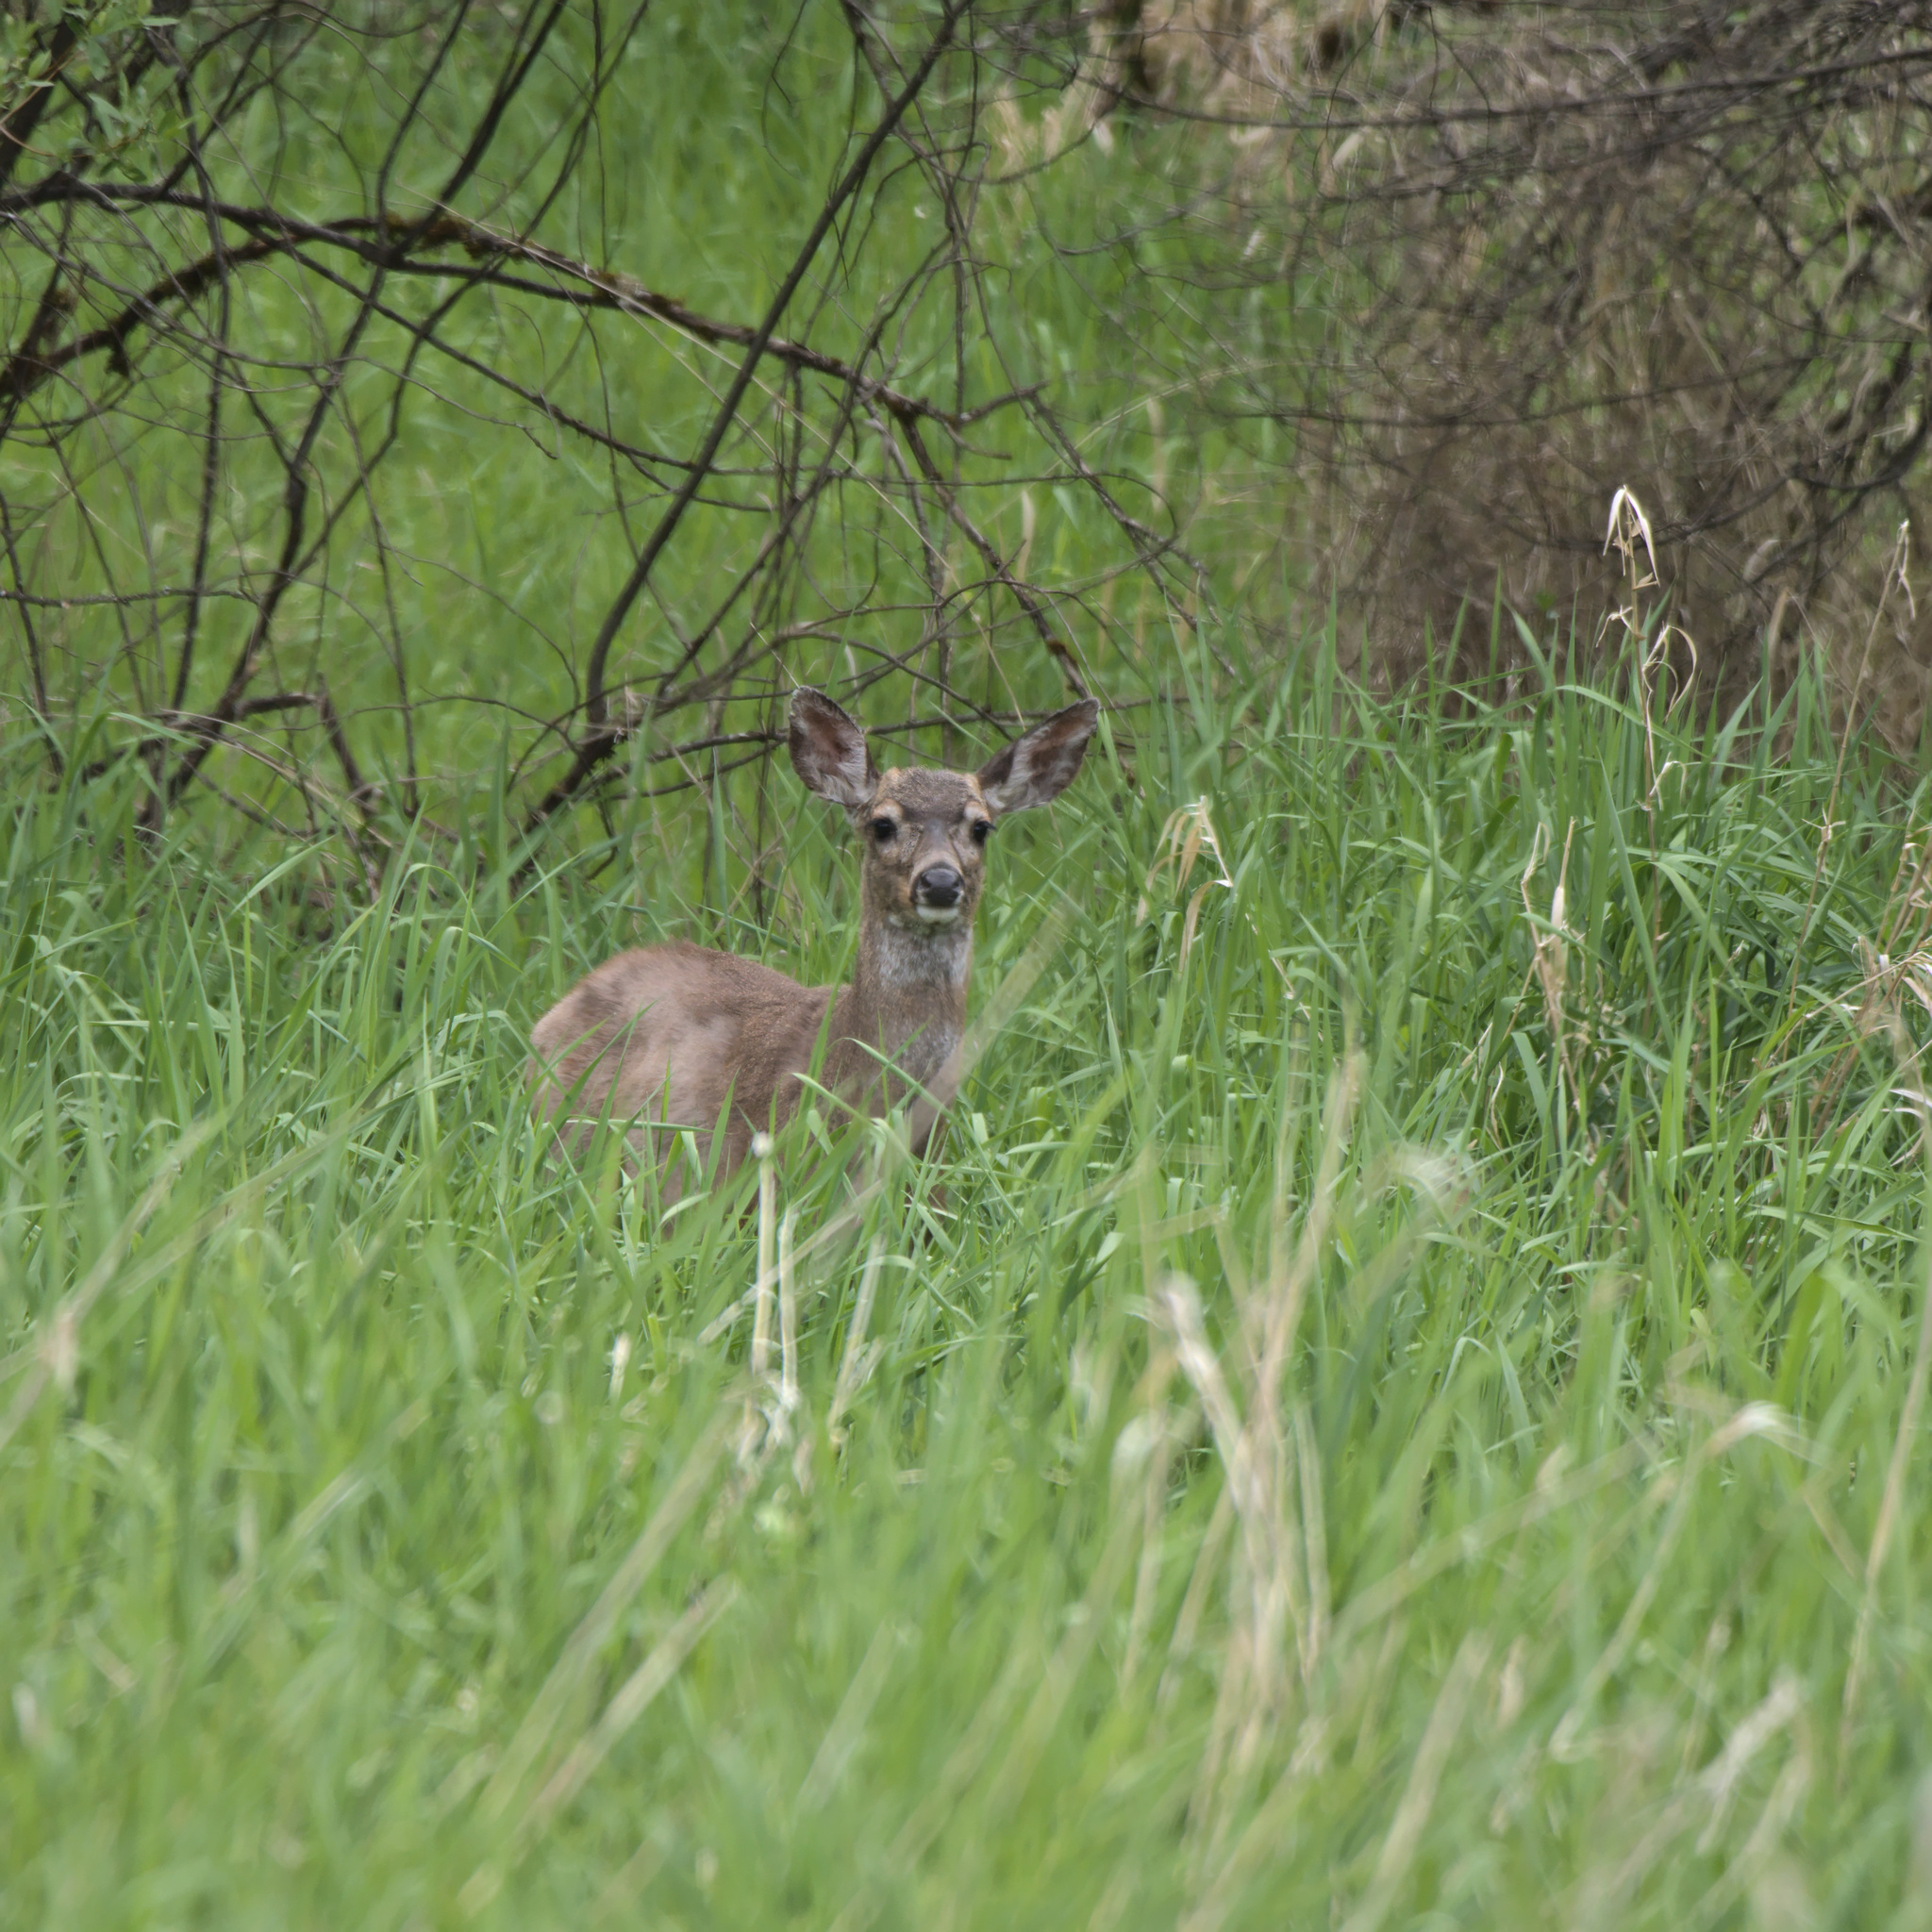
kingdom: Animalia
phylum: Chordata
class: Mammalia
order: Artiodactyla
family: Cervidae
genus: Odocoileus
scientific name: Odocoileus hemionus
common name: Mule deer
